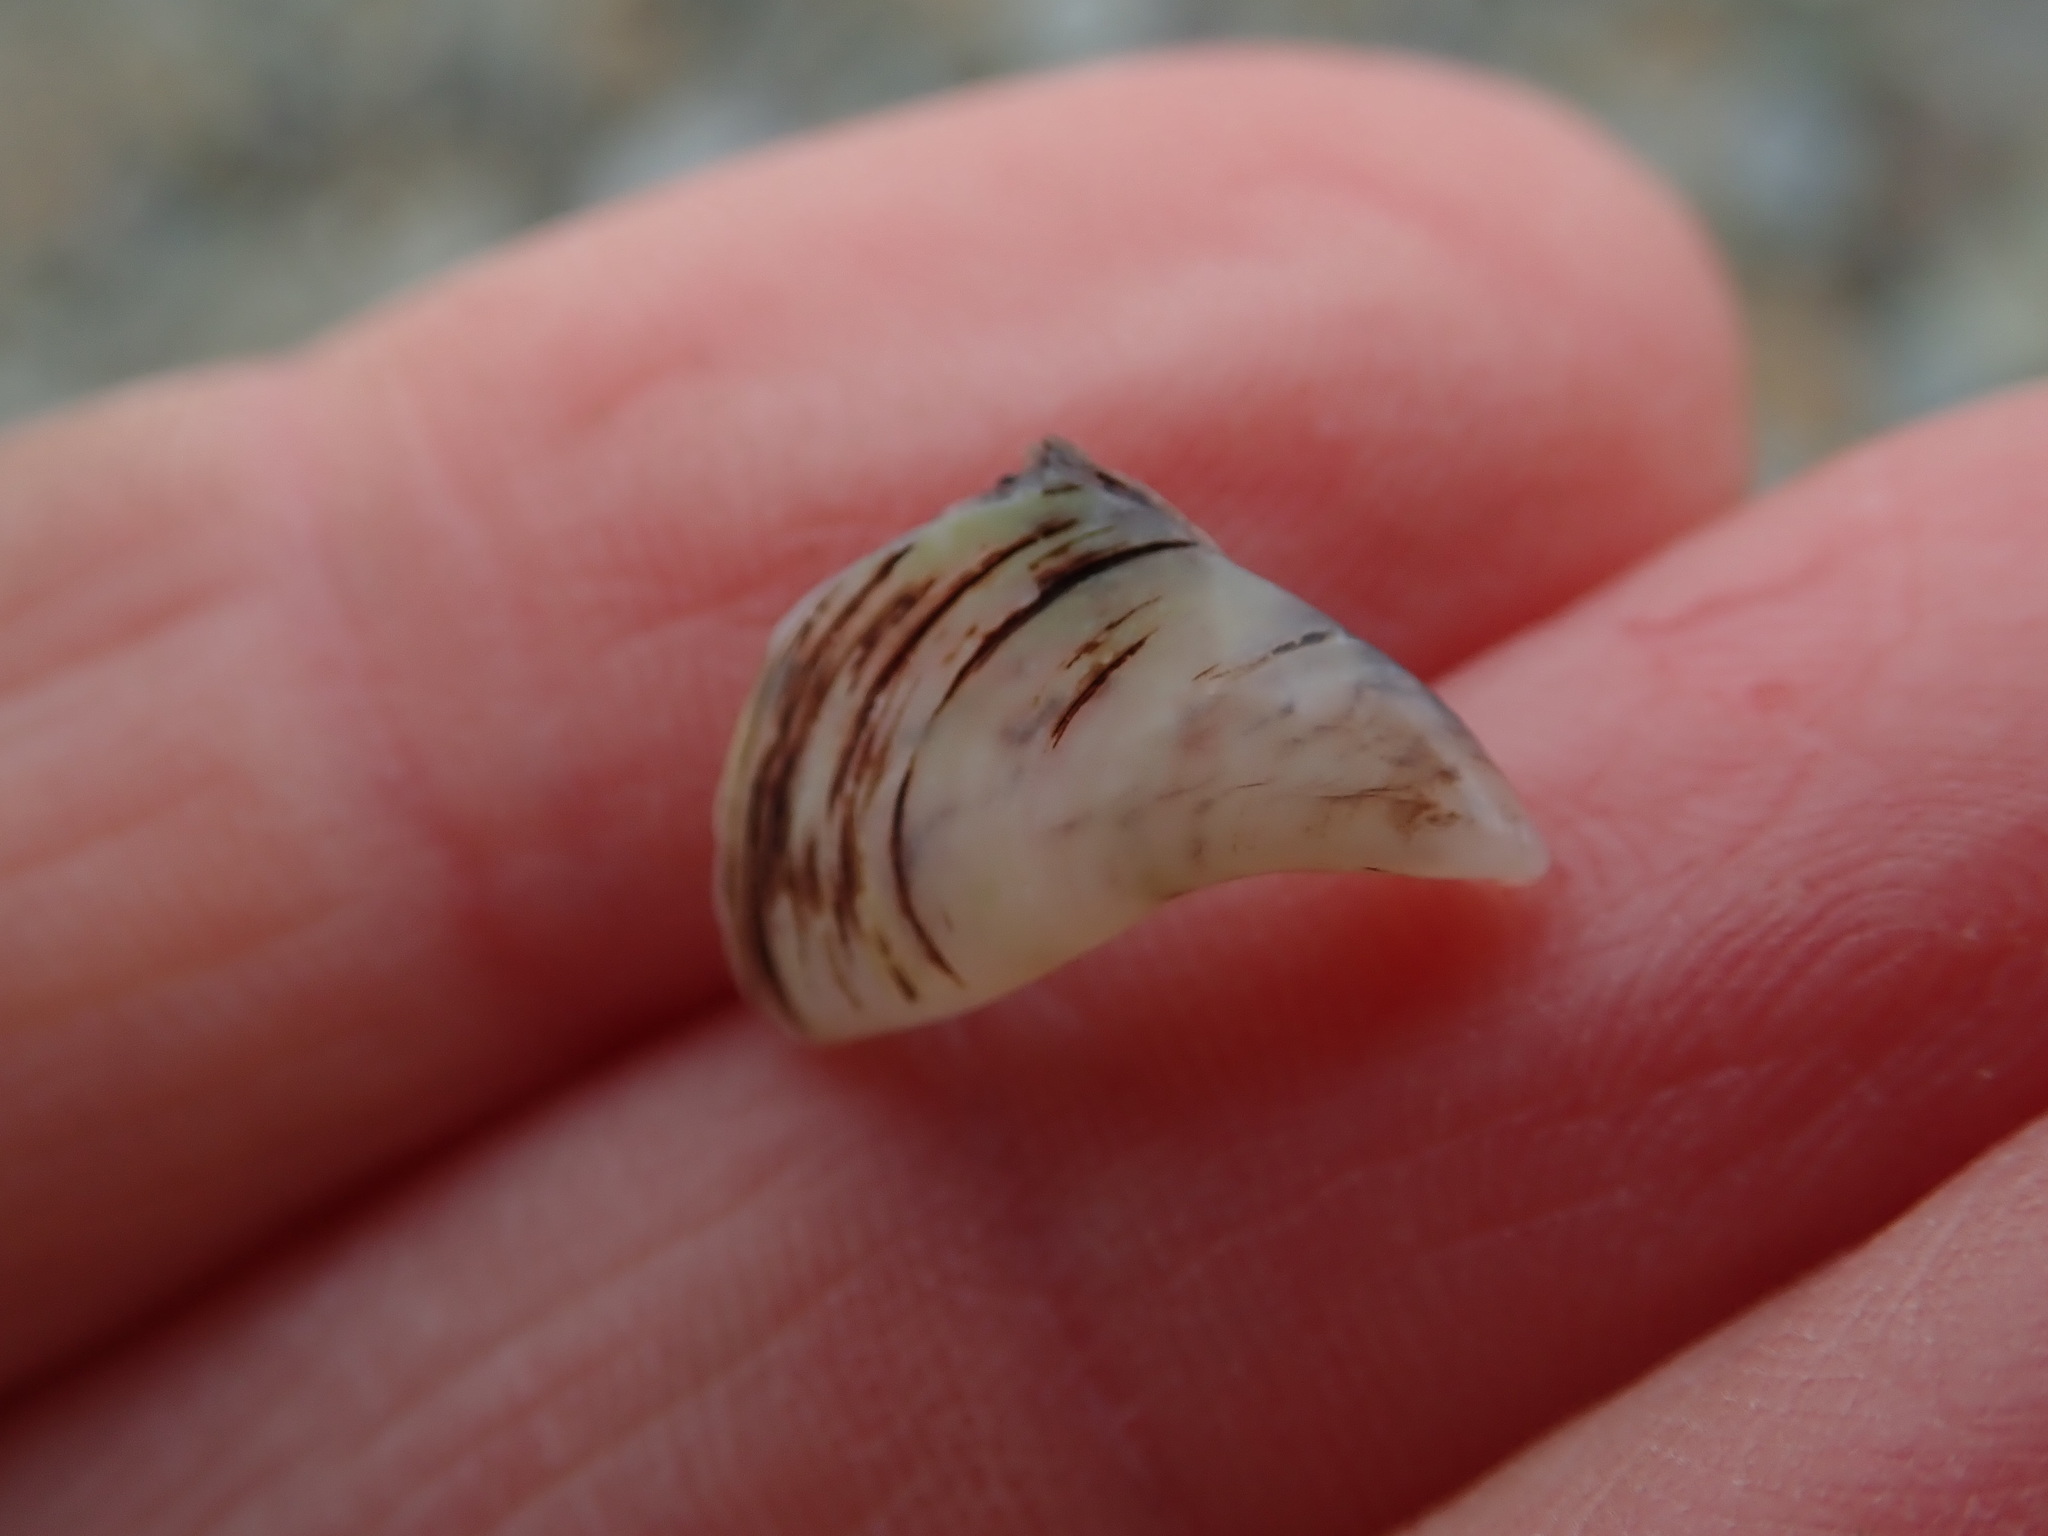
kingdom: Animalia
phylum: Mollusca
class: Bivalvia
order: Myida
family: Dreissenidae
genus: Dreissena
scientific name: Dreissena polymorpha
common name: Zebra mussel
